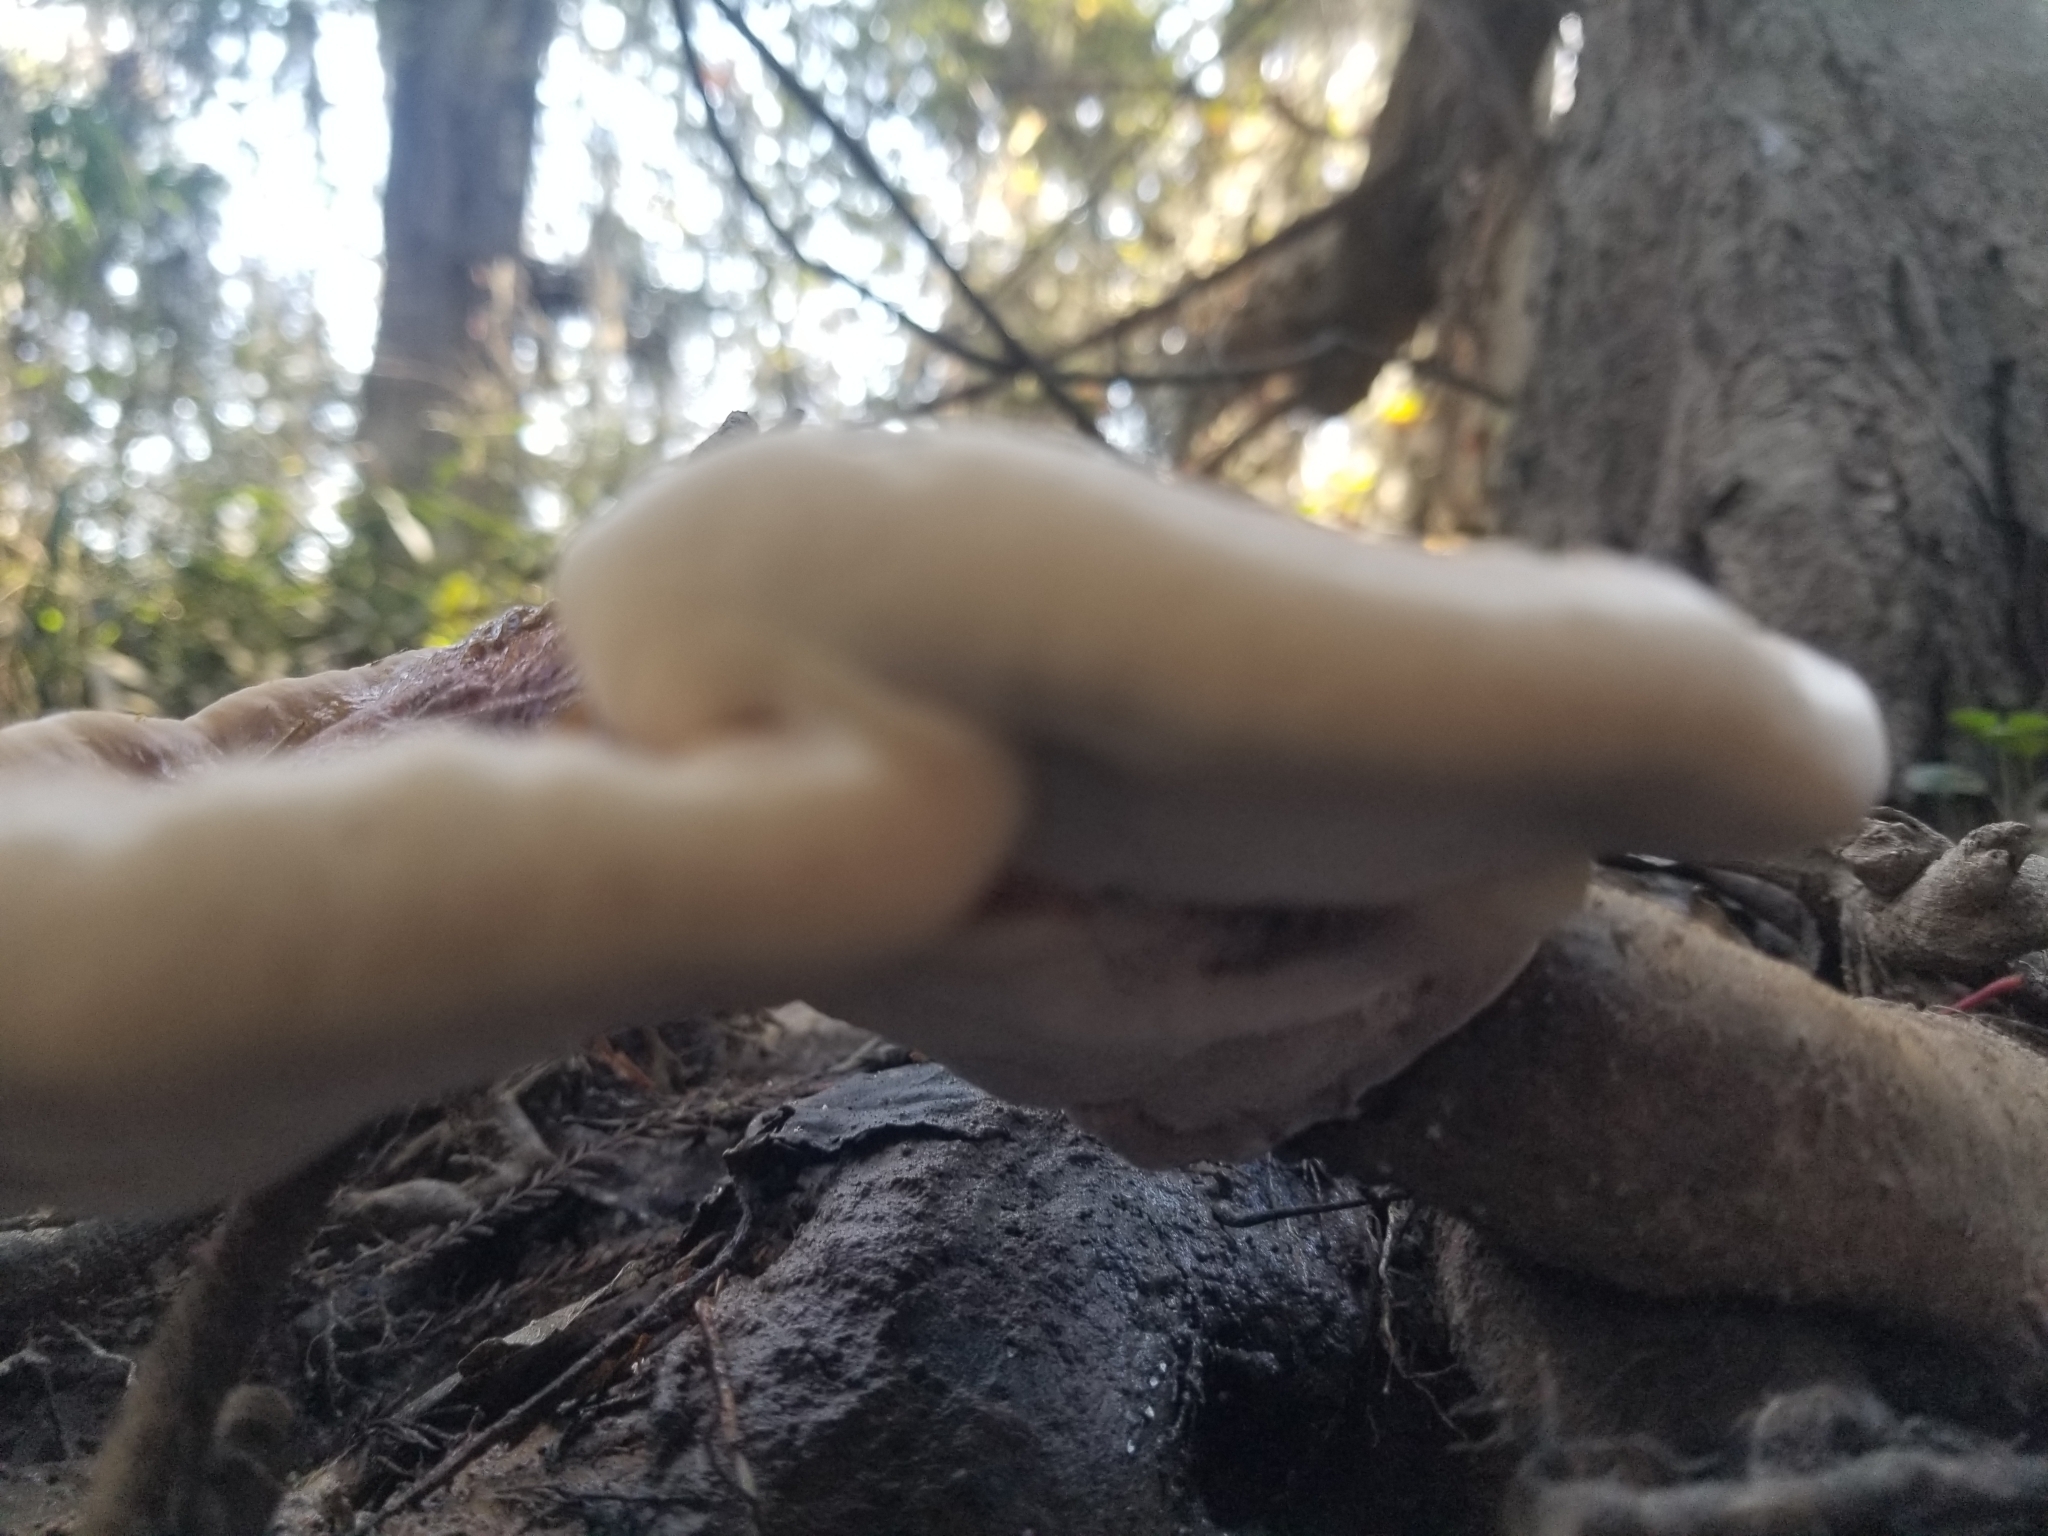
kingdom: Fungi
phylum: Basidiomycota
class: Agaricomycetes
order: Polyporales
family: Polyporaceae
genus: Ganoderma
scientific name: Ganoderma resinaceum
